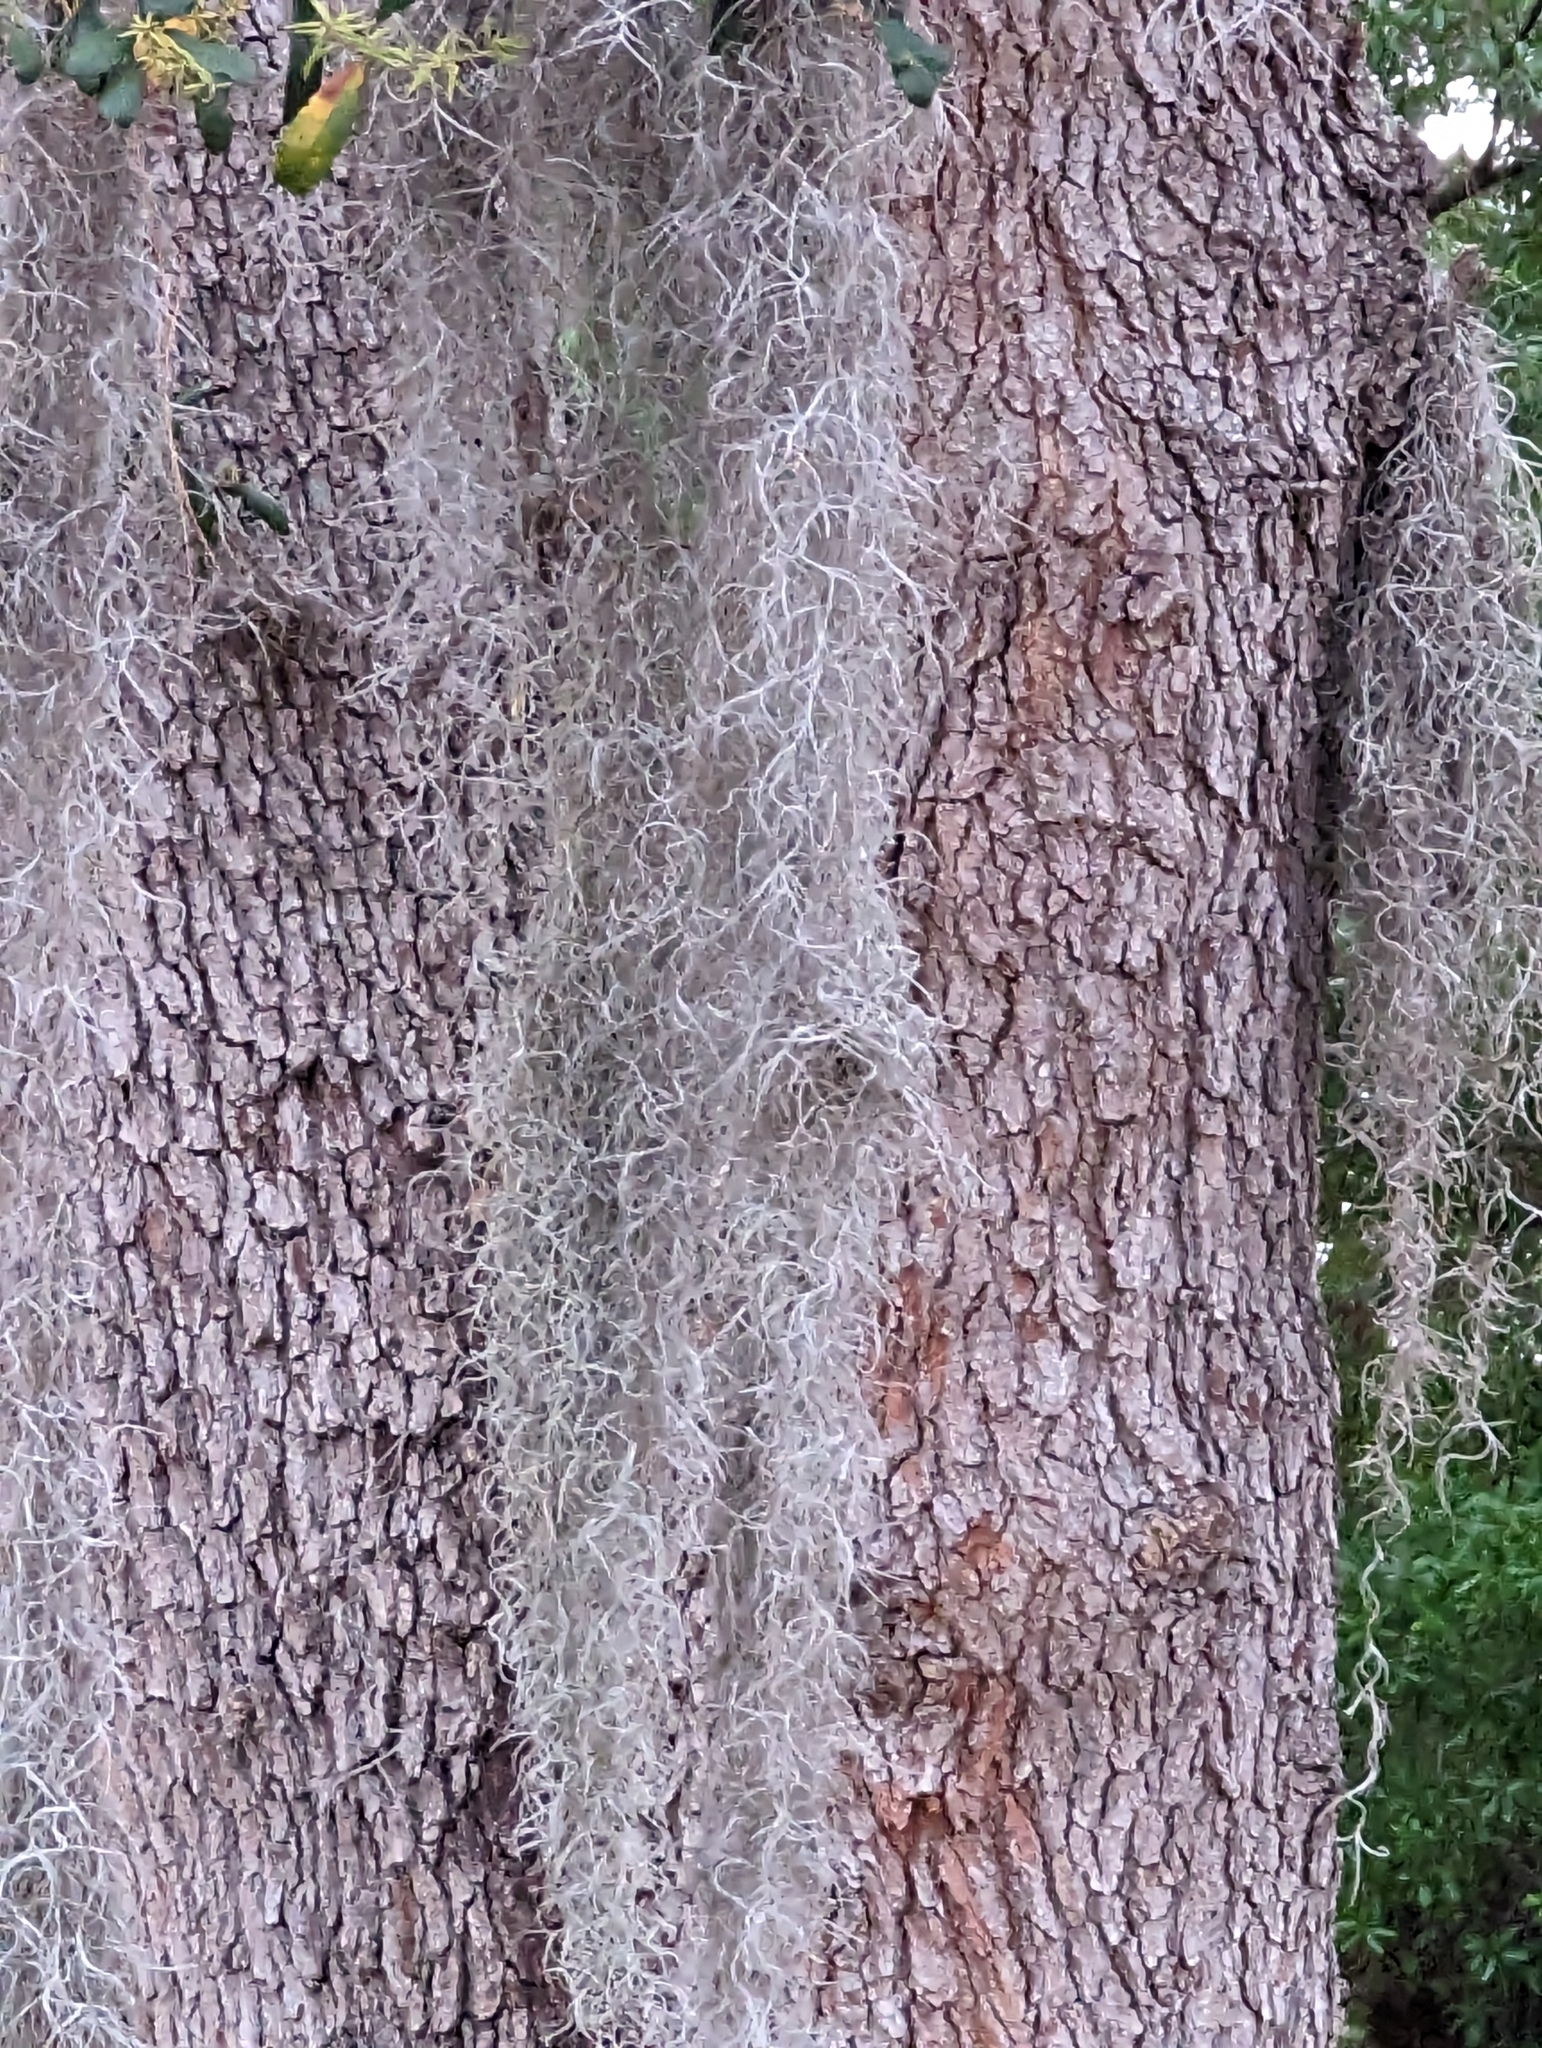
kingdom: Plantae
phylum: Tracheophyta
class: Liliopsida
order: Poales
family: Bromeliaceae
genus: Tillandsia
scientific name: Tillandsia usneoides
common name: Spanish moss
